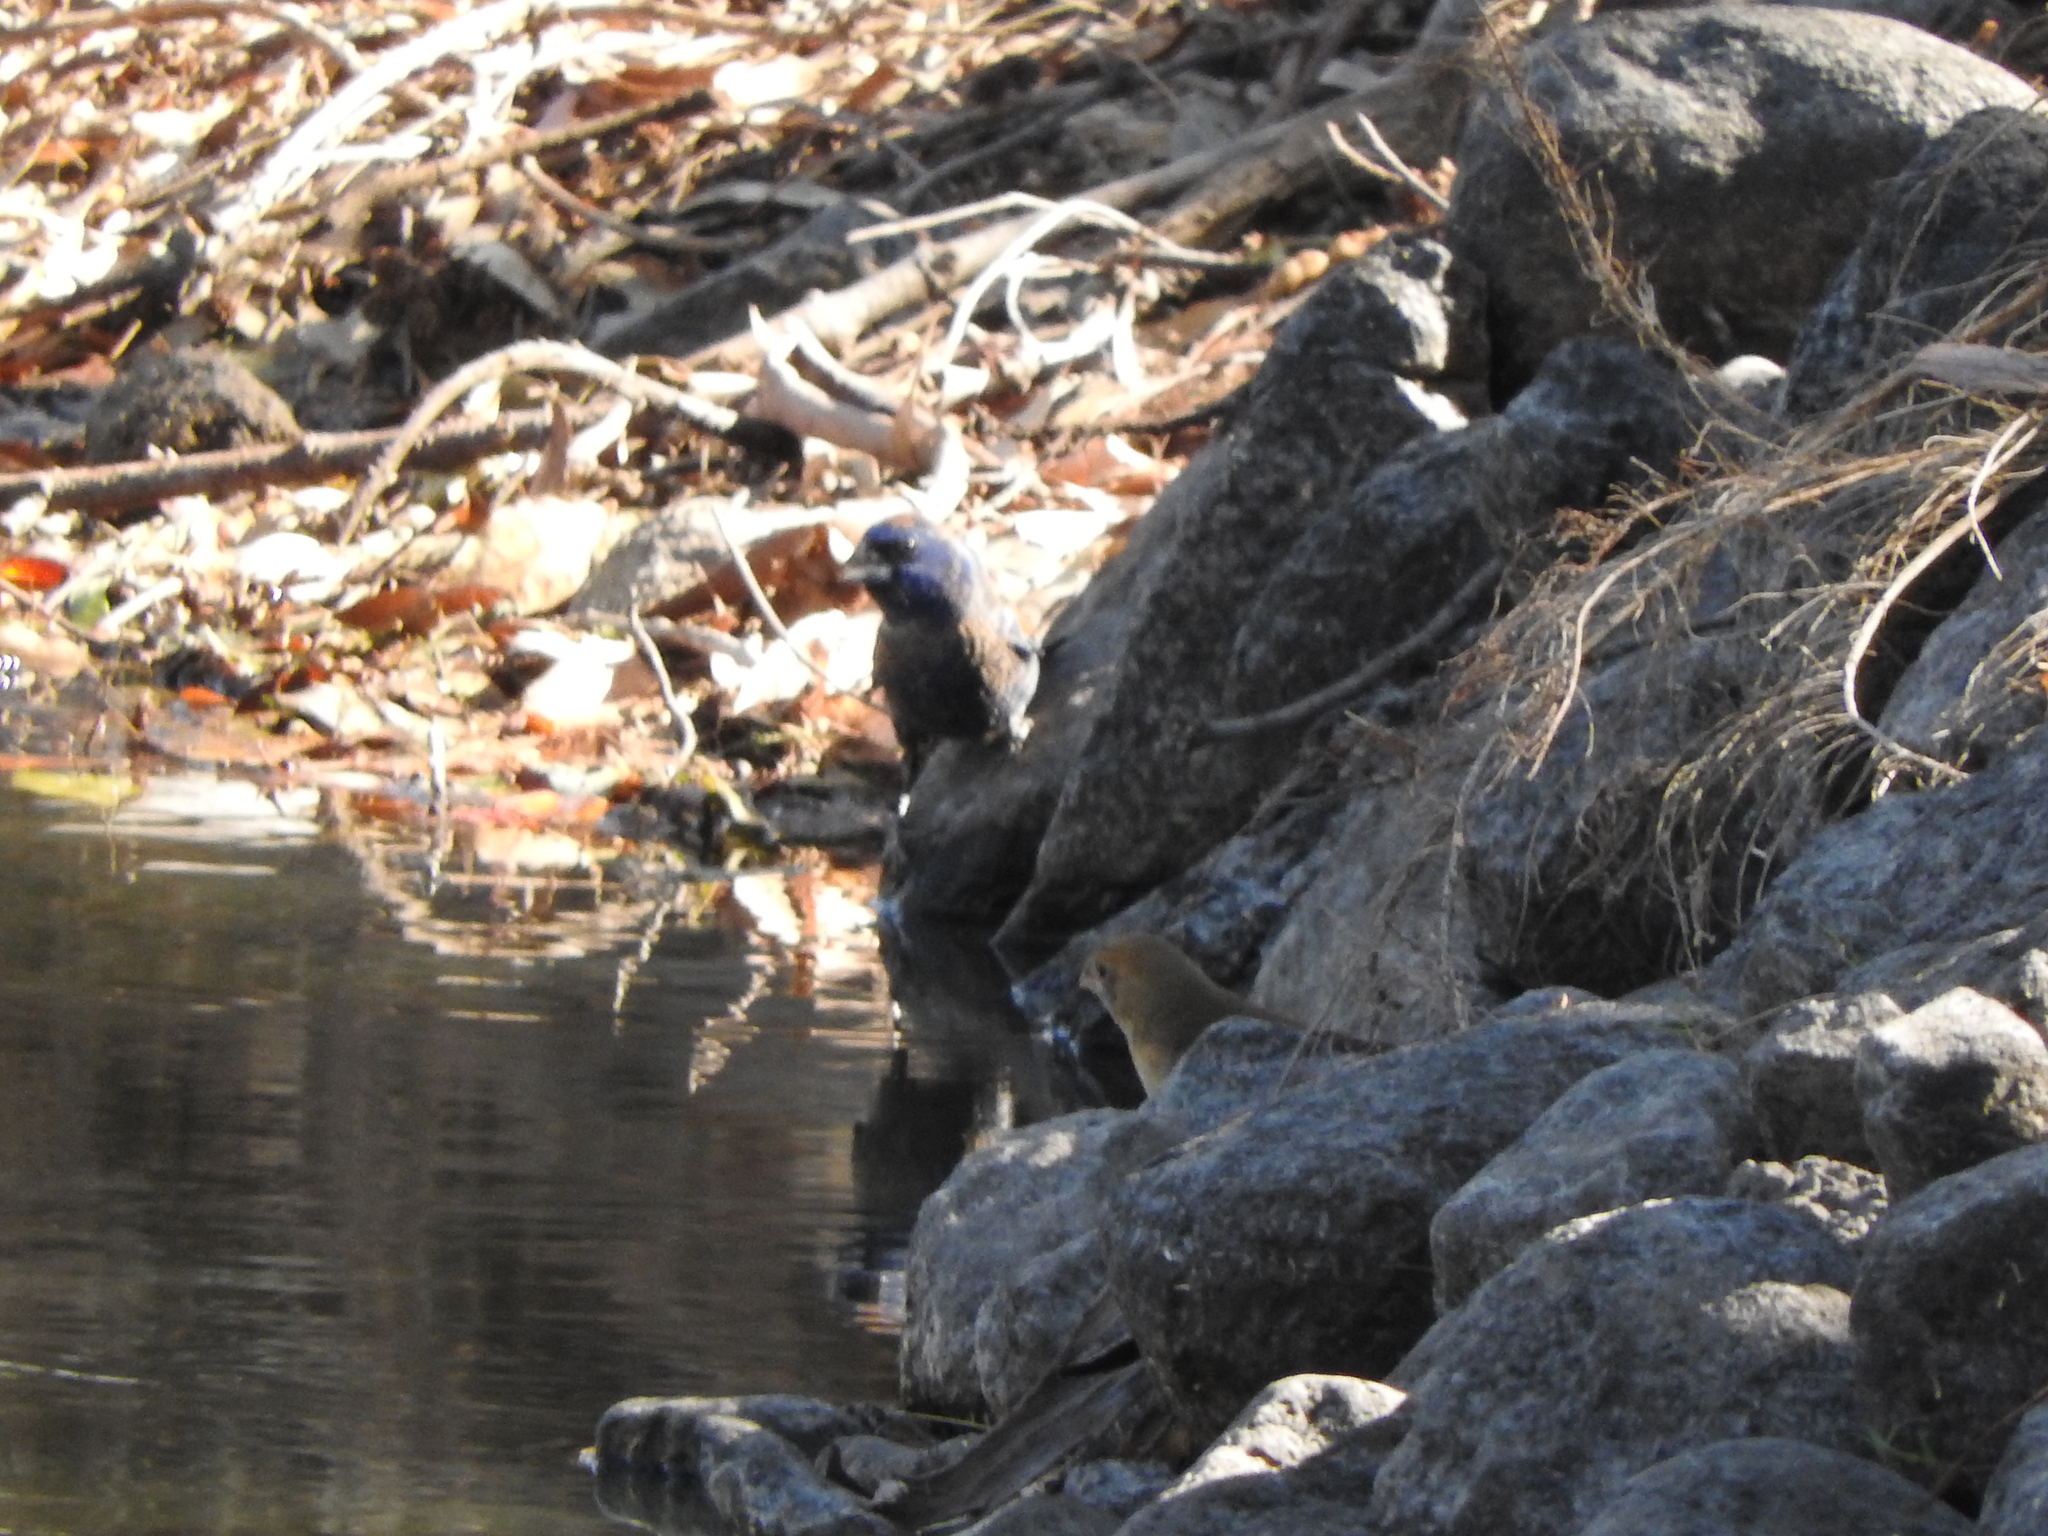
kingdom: Animalia
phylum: Chordata
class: Aves
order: Passeriformes
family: Cardinalidae
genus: Passerina
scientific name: Passerina caerulea
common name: Blue grosbeak
